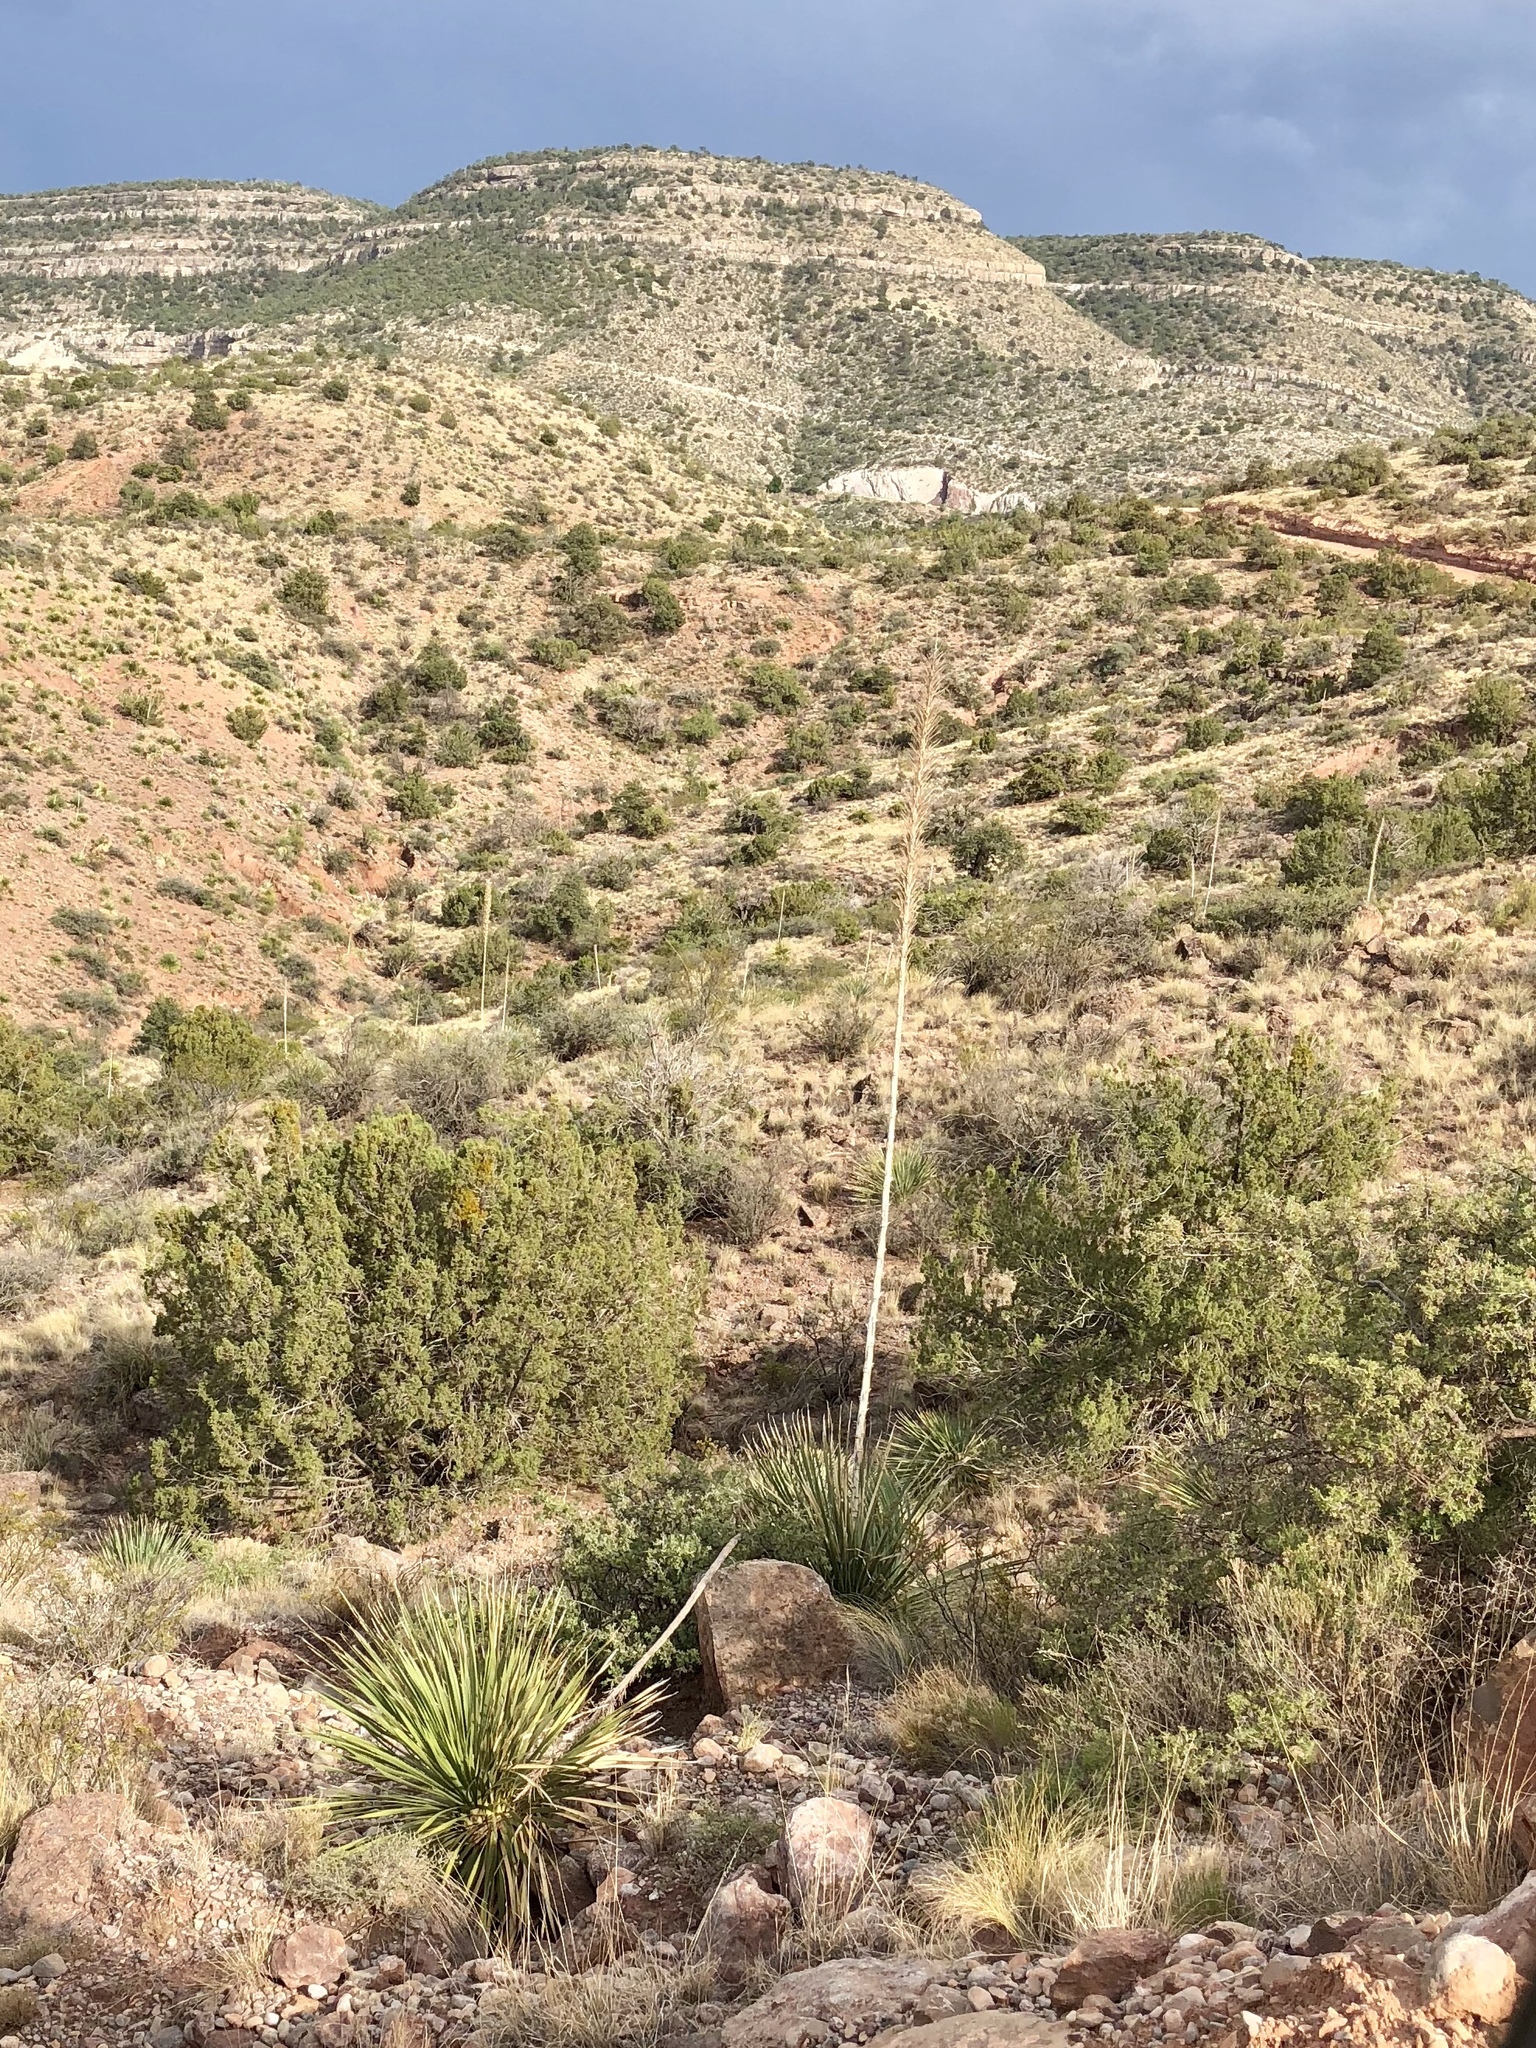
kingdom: Plantae
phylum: Tracheophyta
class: Liliopsida
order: Asparagales
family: Asparagaceae
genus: Dasylirion
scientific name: Dasylirion wheeleri
